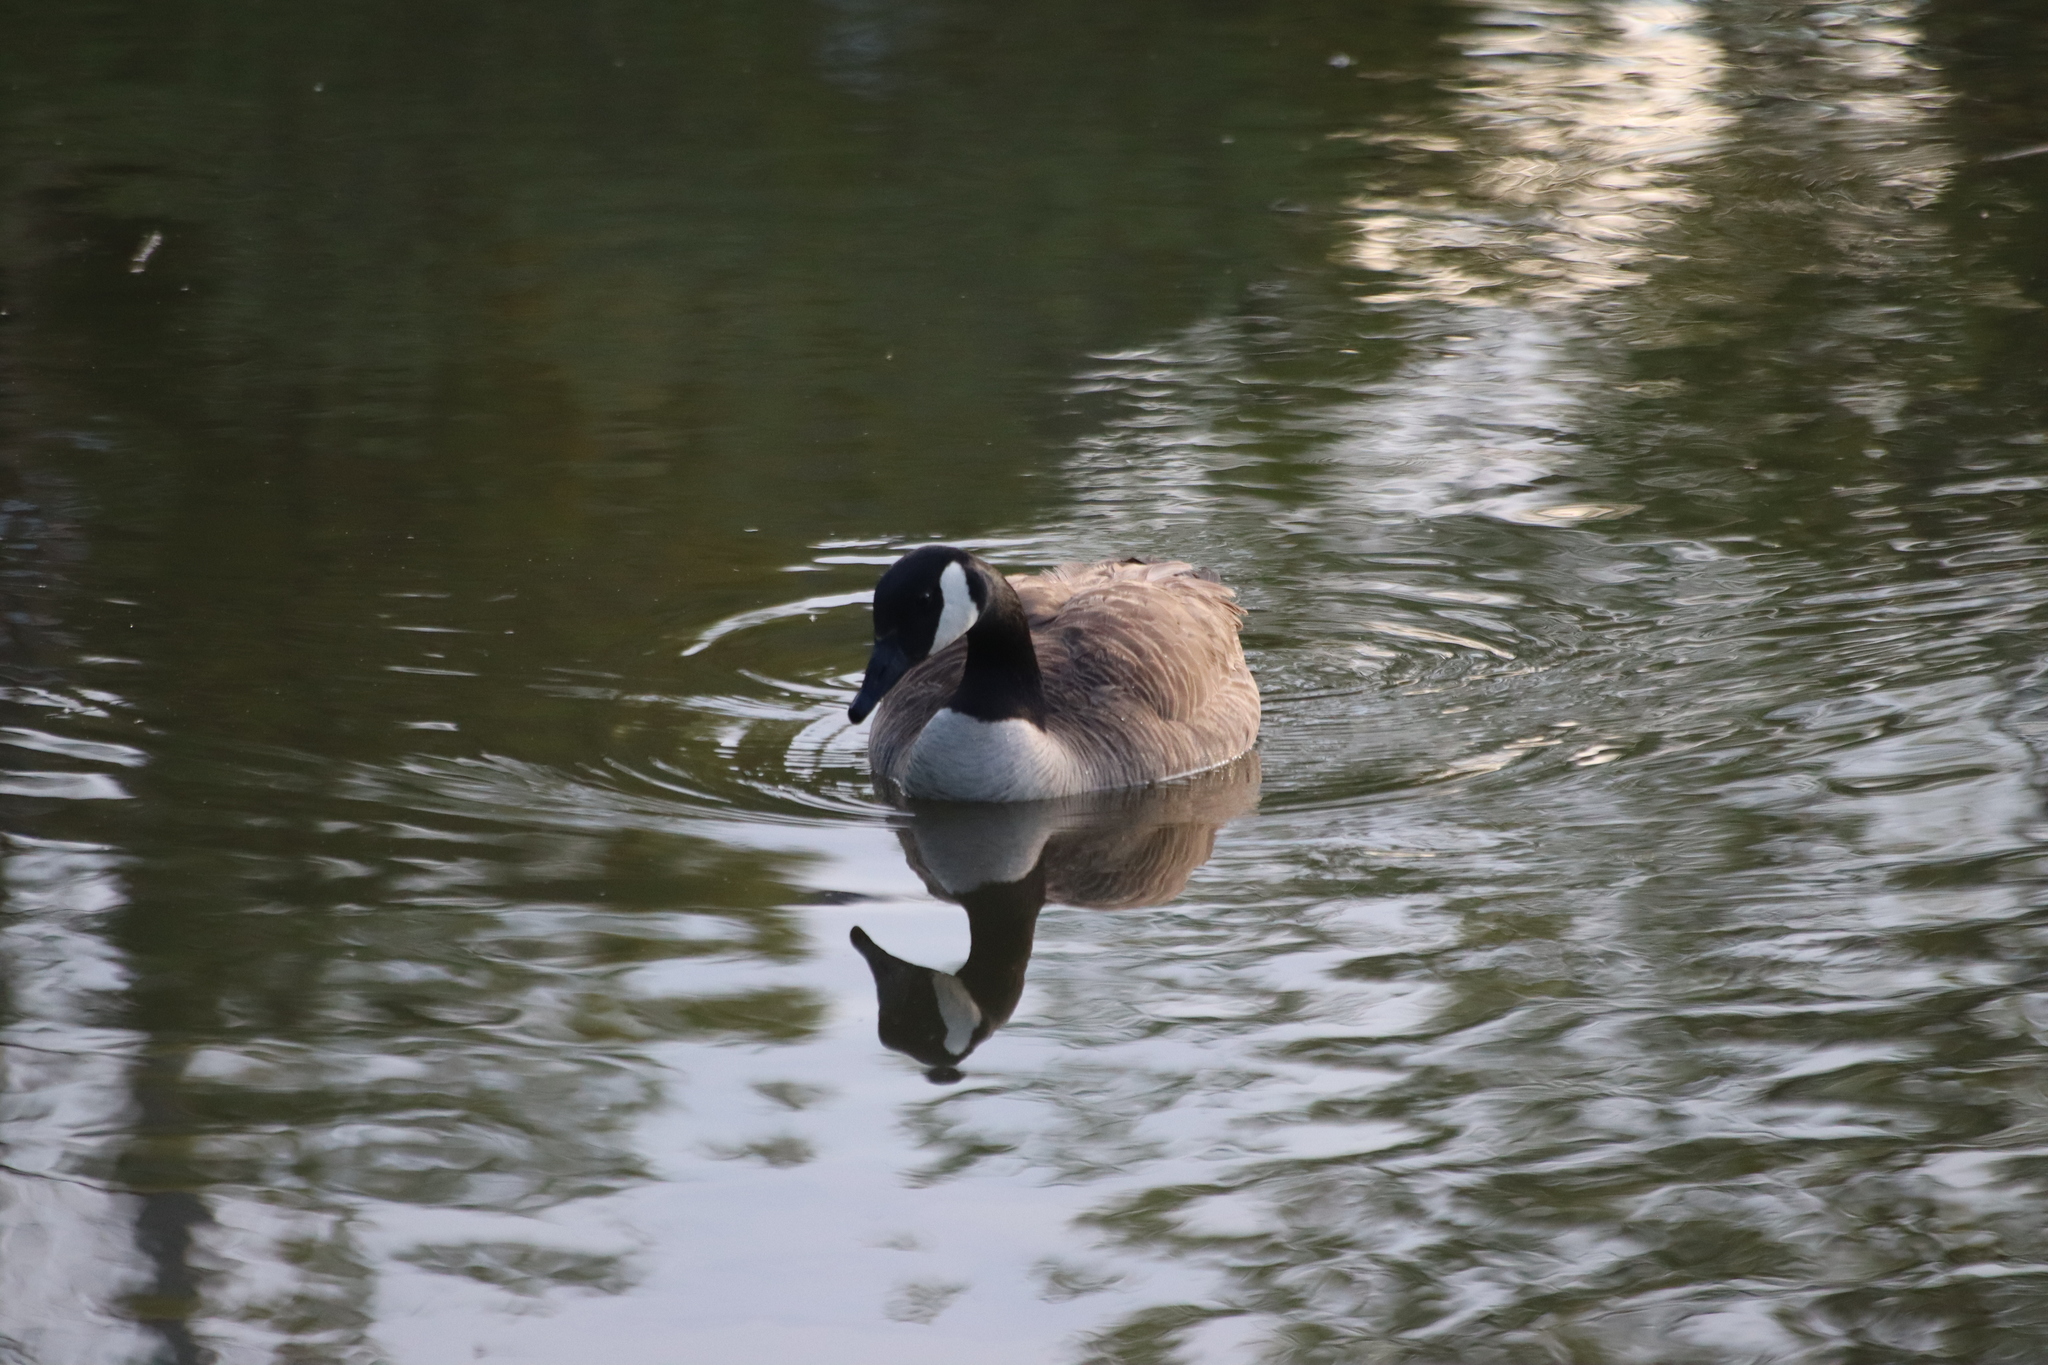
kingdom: Animalia
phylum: Chordata
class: Aves
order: Anseriformes
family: Anatidae
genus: Branta
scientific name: Branta canadensis
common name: Canada goose
